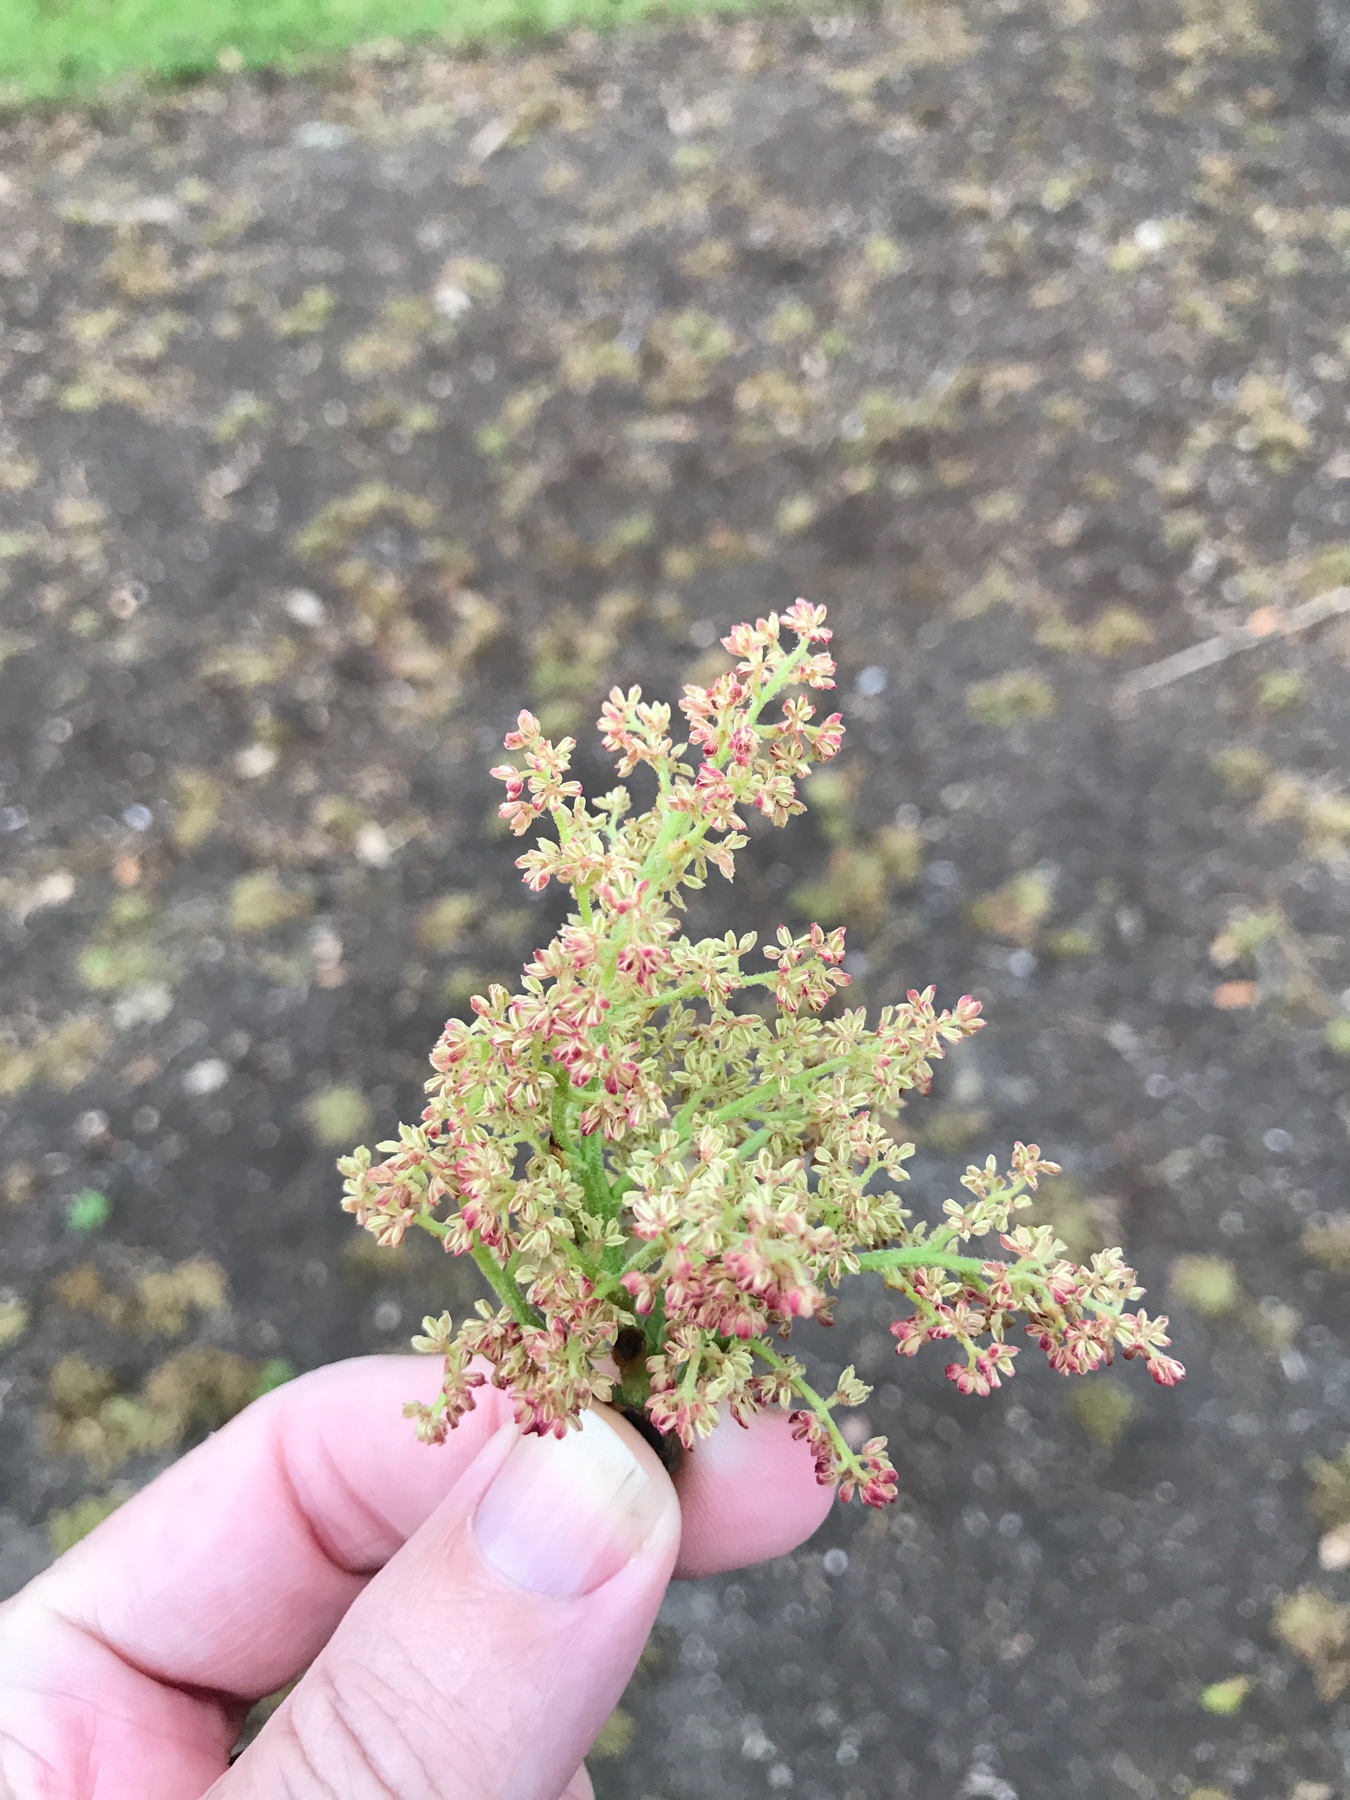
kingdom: Plantae
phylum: Tracheophyta
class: Magnoliopsida
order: Sapindales
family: Anacardiaceae
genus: Pistacia
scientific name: Pistacia chinensis
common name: Chinese pistache
